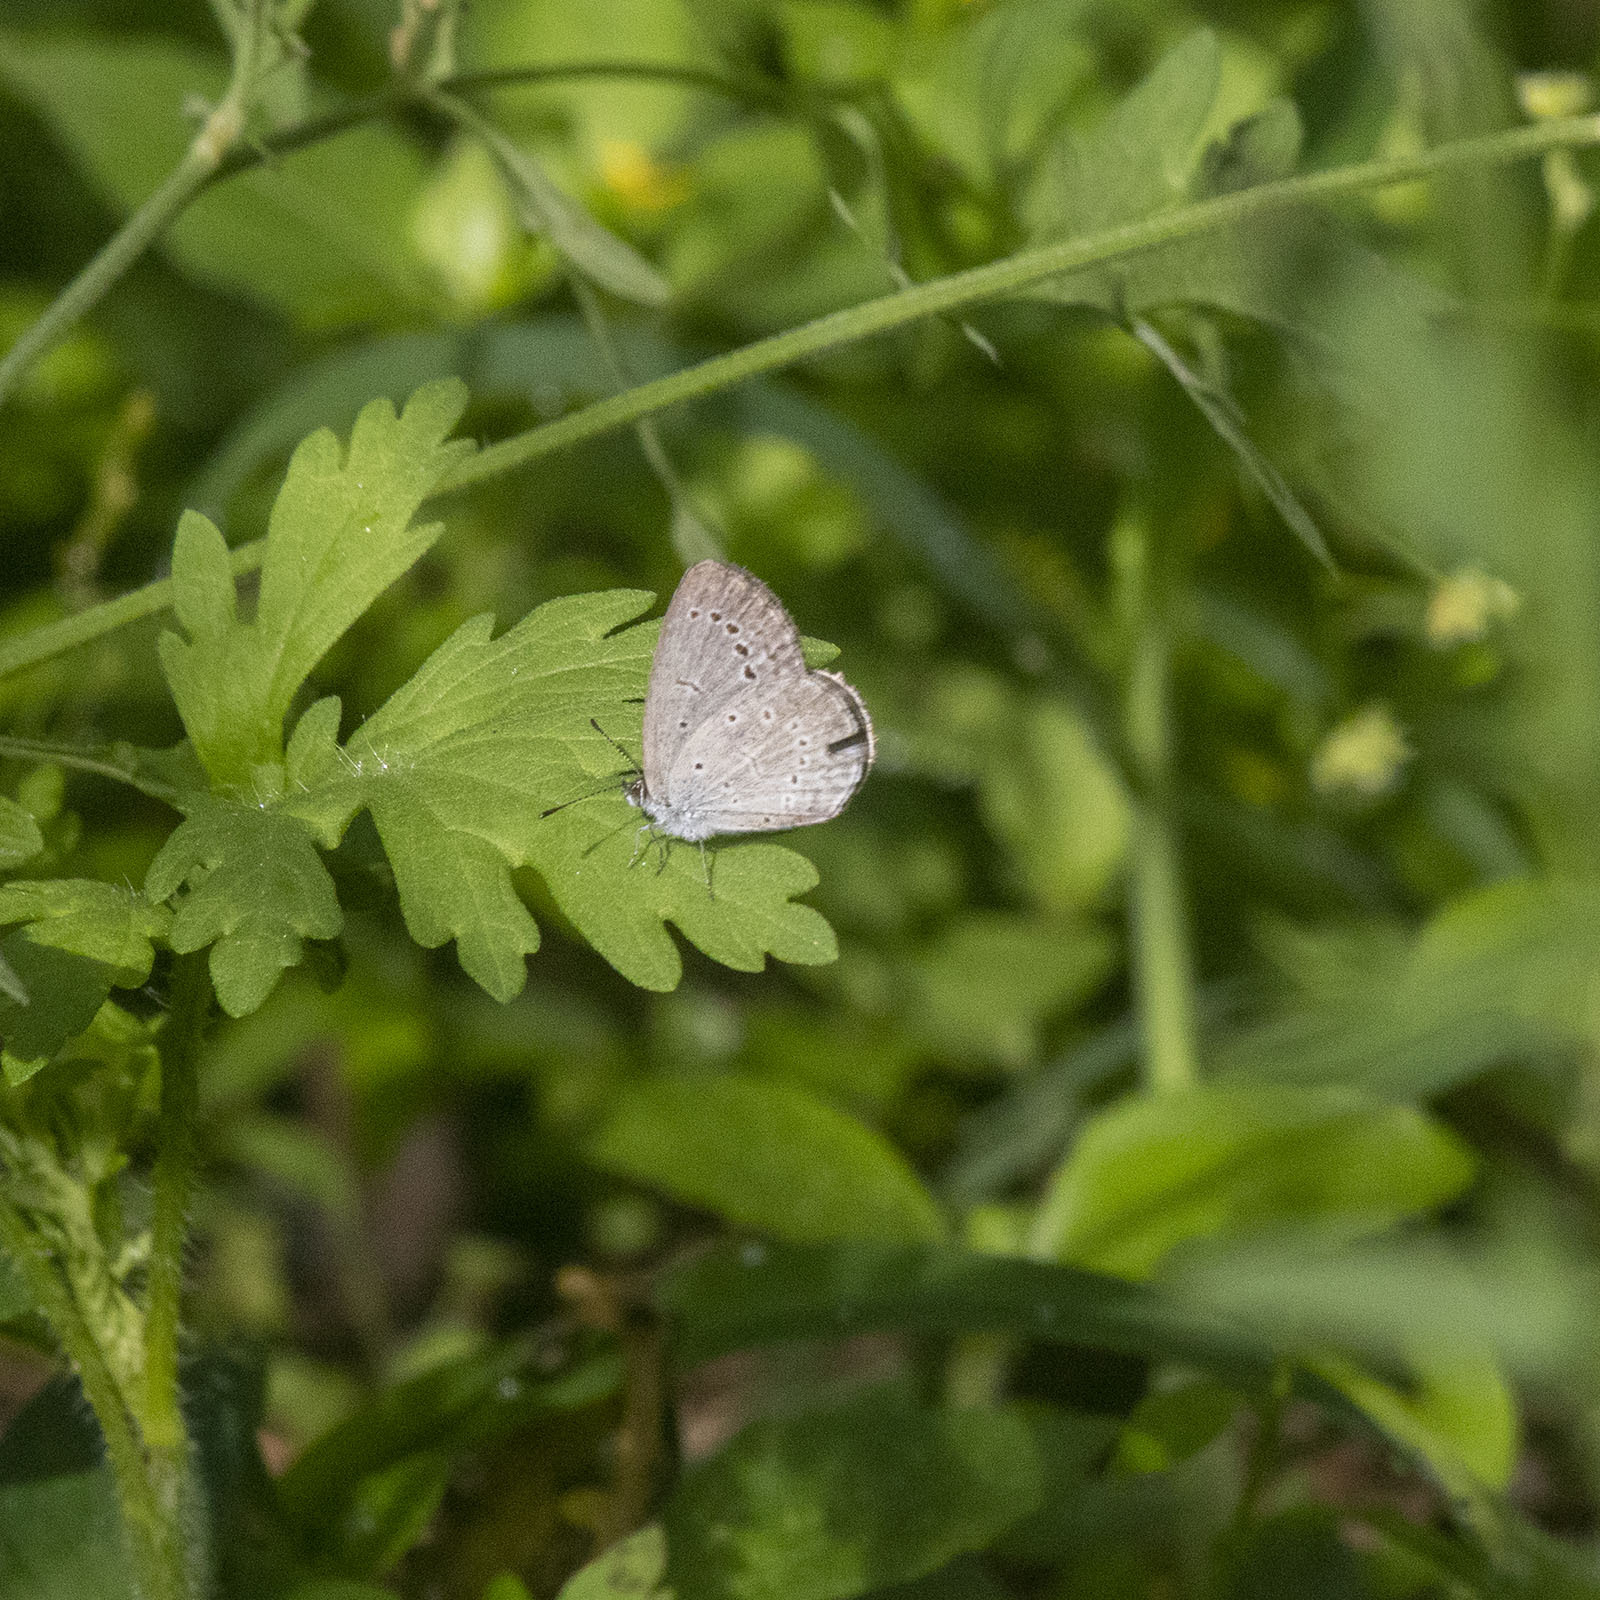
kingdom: Animalia
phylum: Arthropoda
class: Insecta
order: Lepidoptera
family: Lycaenidae
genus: Pseudozizeeria
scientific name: Pseudozizeeria maha
